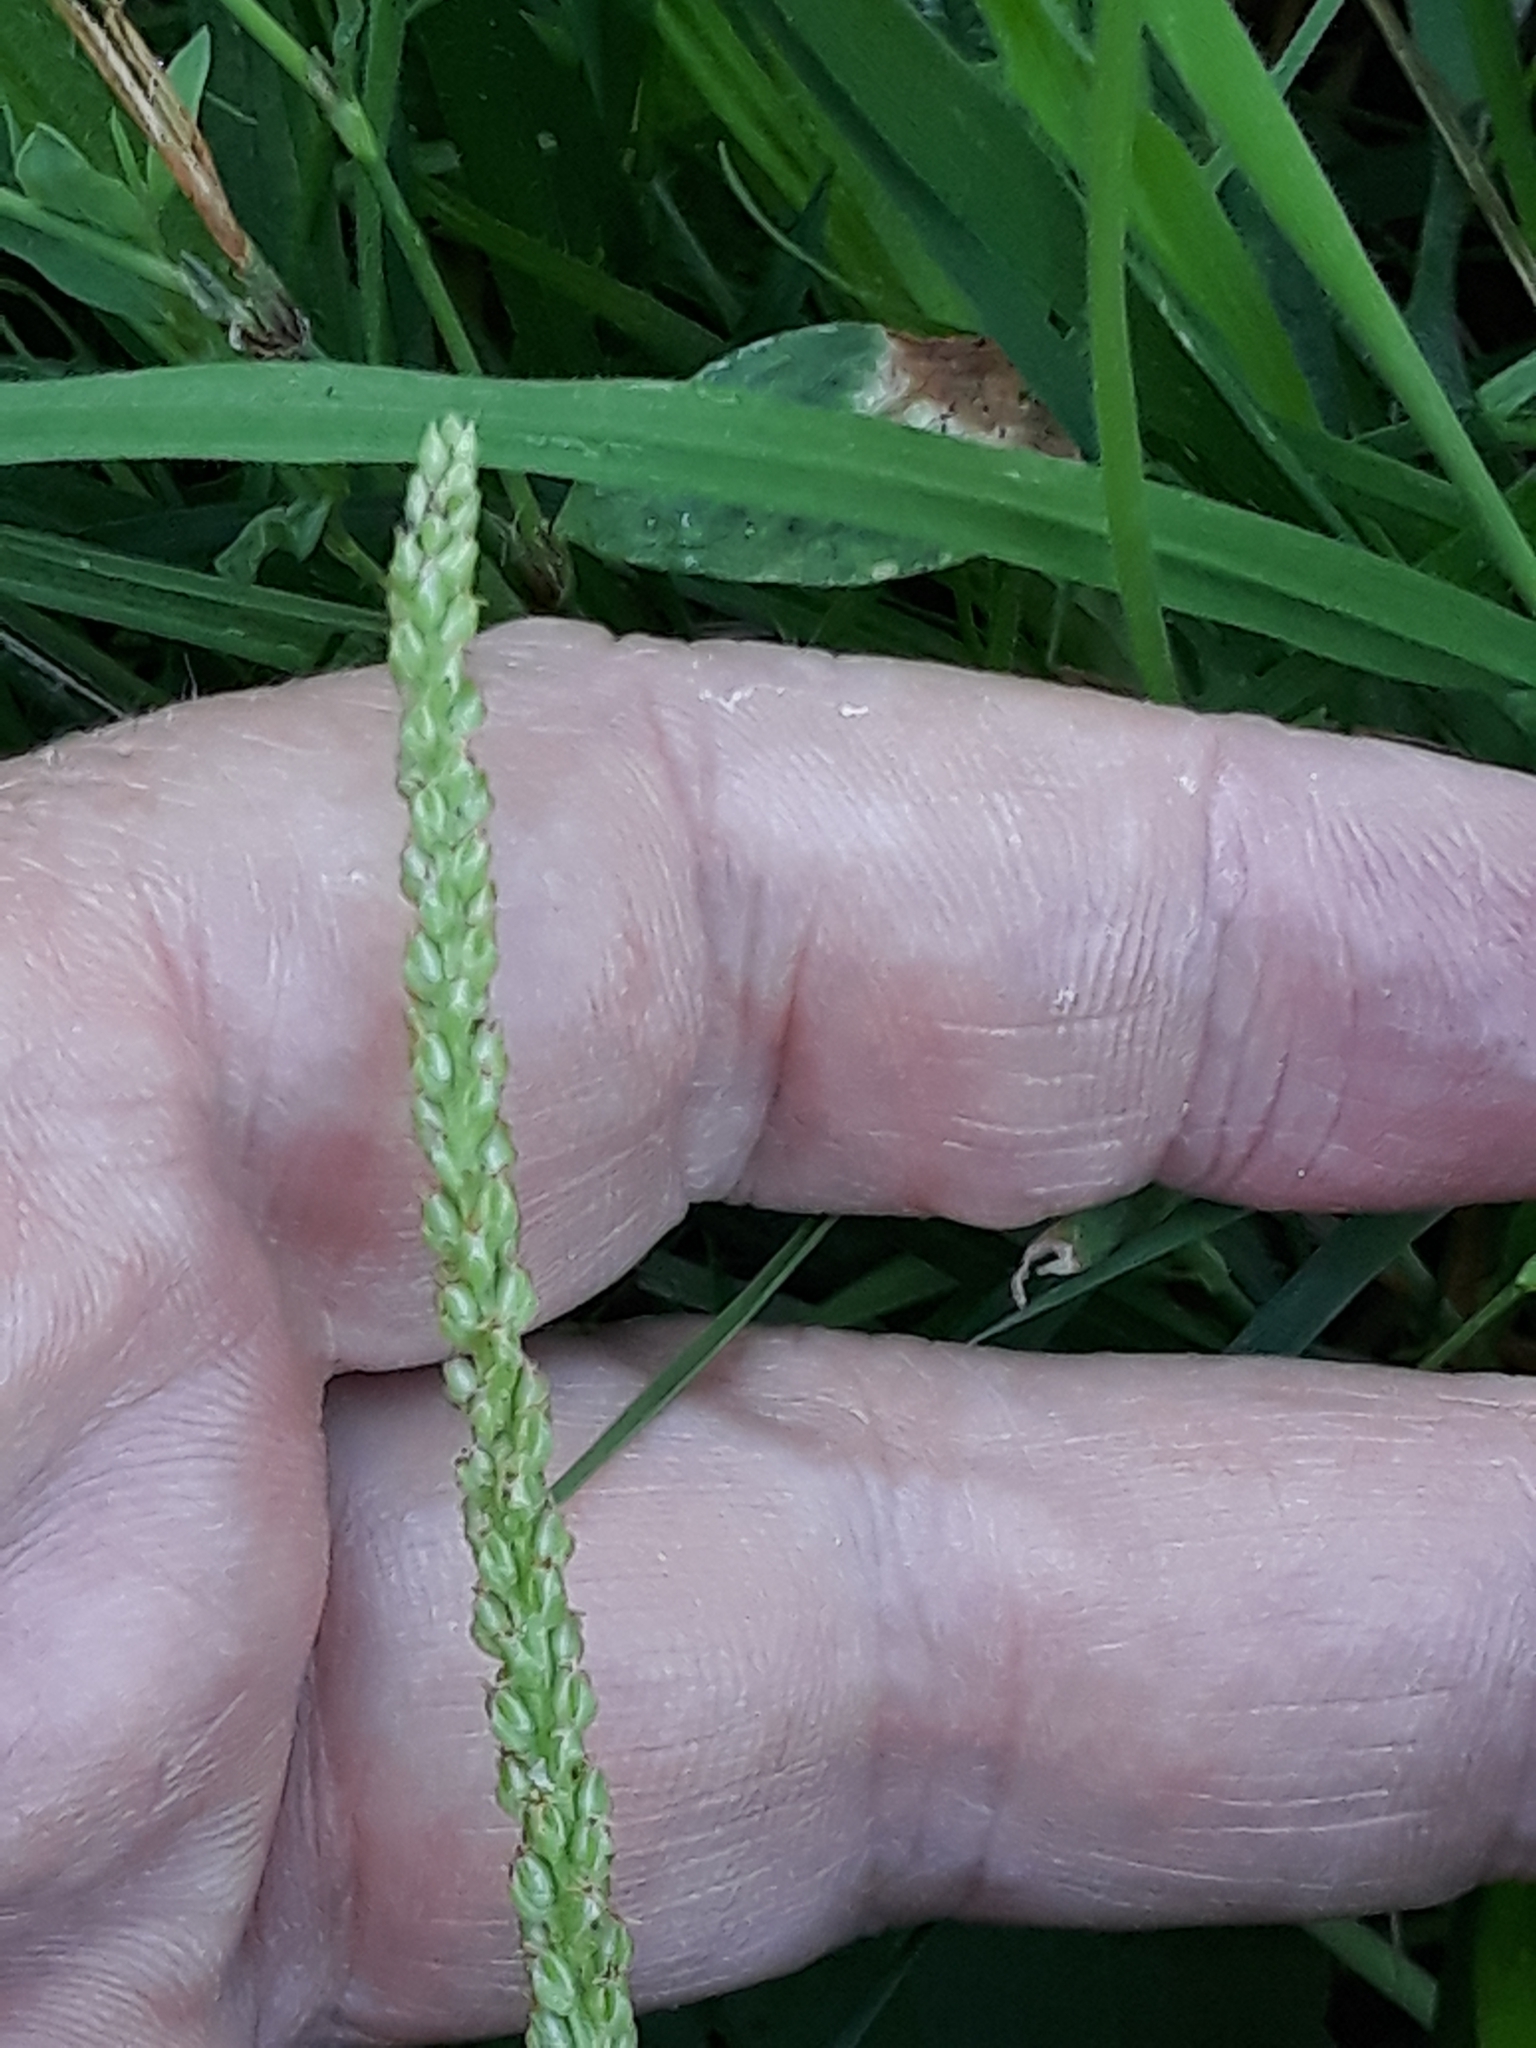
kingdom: Plantae
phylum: Tracheophyta
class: Magnoliopsida
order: Lamiales
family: Plantaginaceae
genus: Plantago
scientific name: Plantago major
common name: Common plantain
